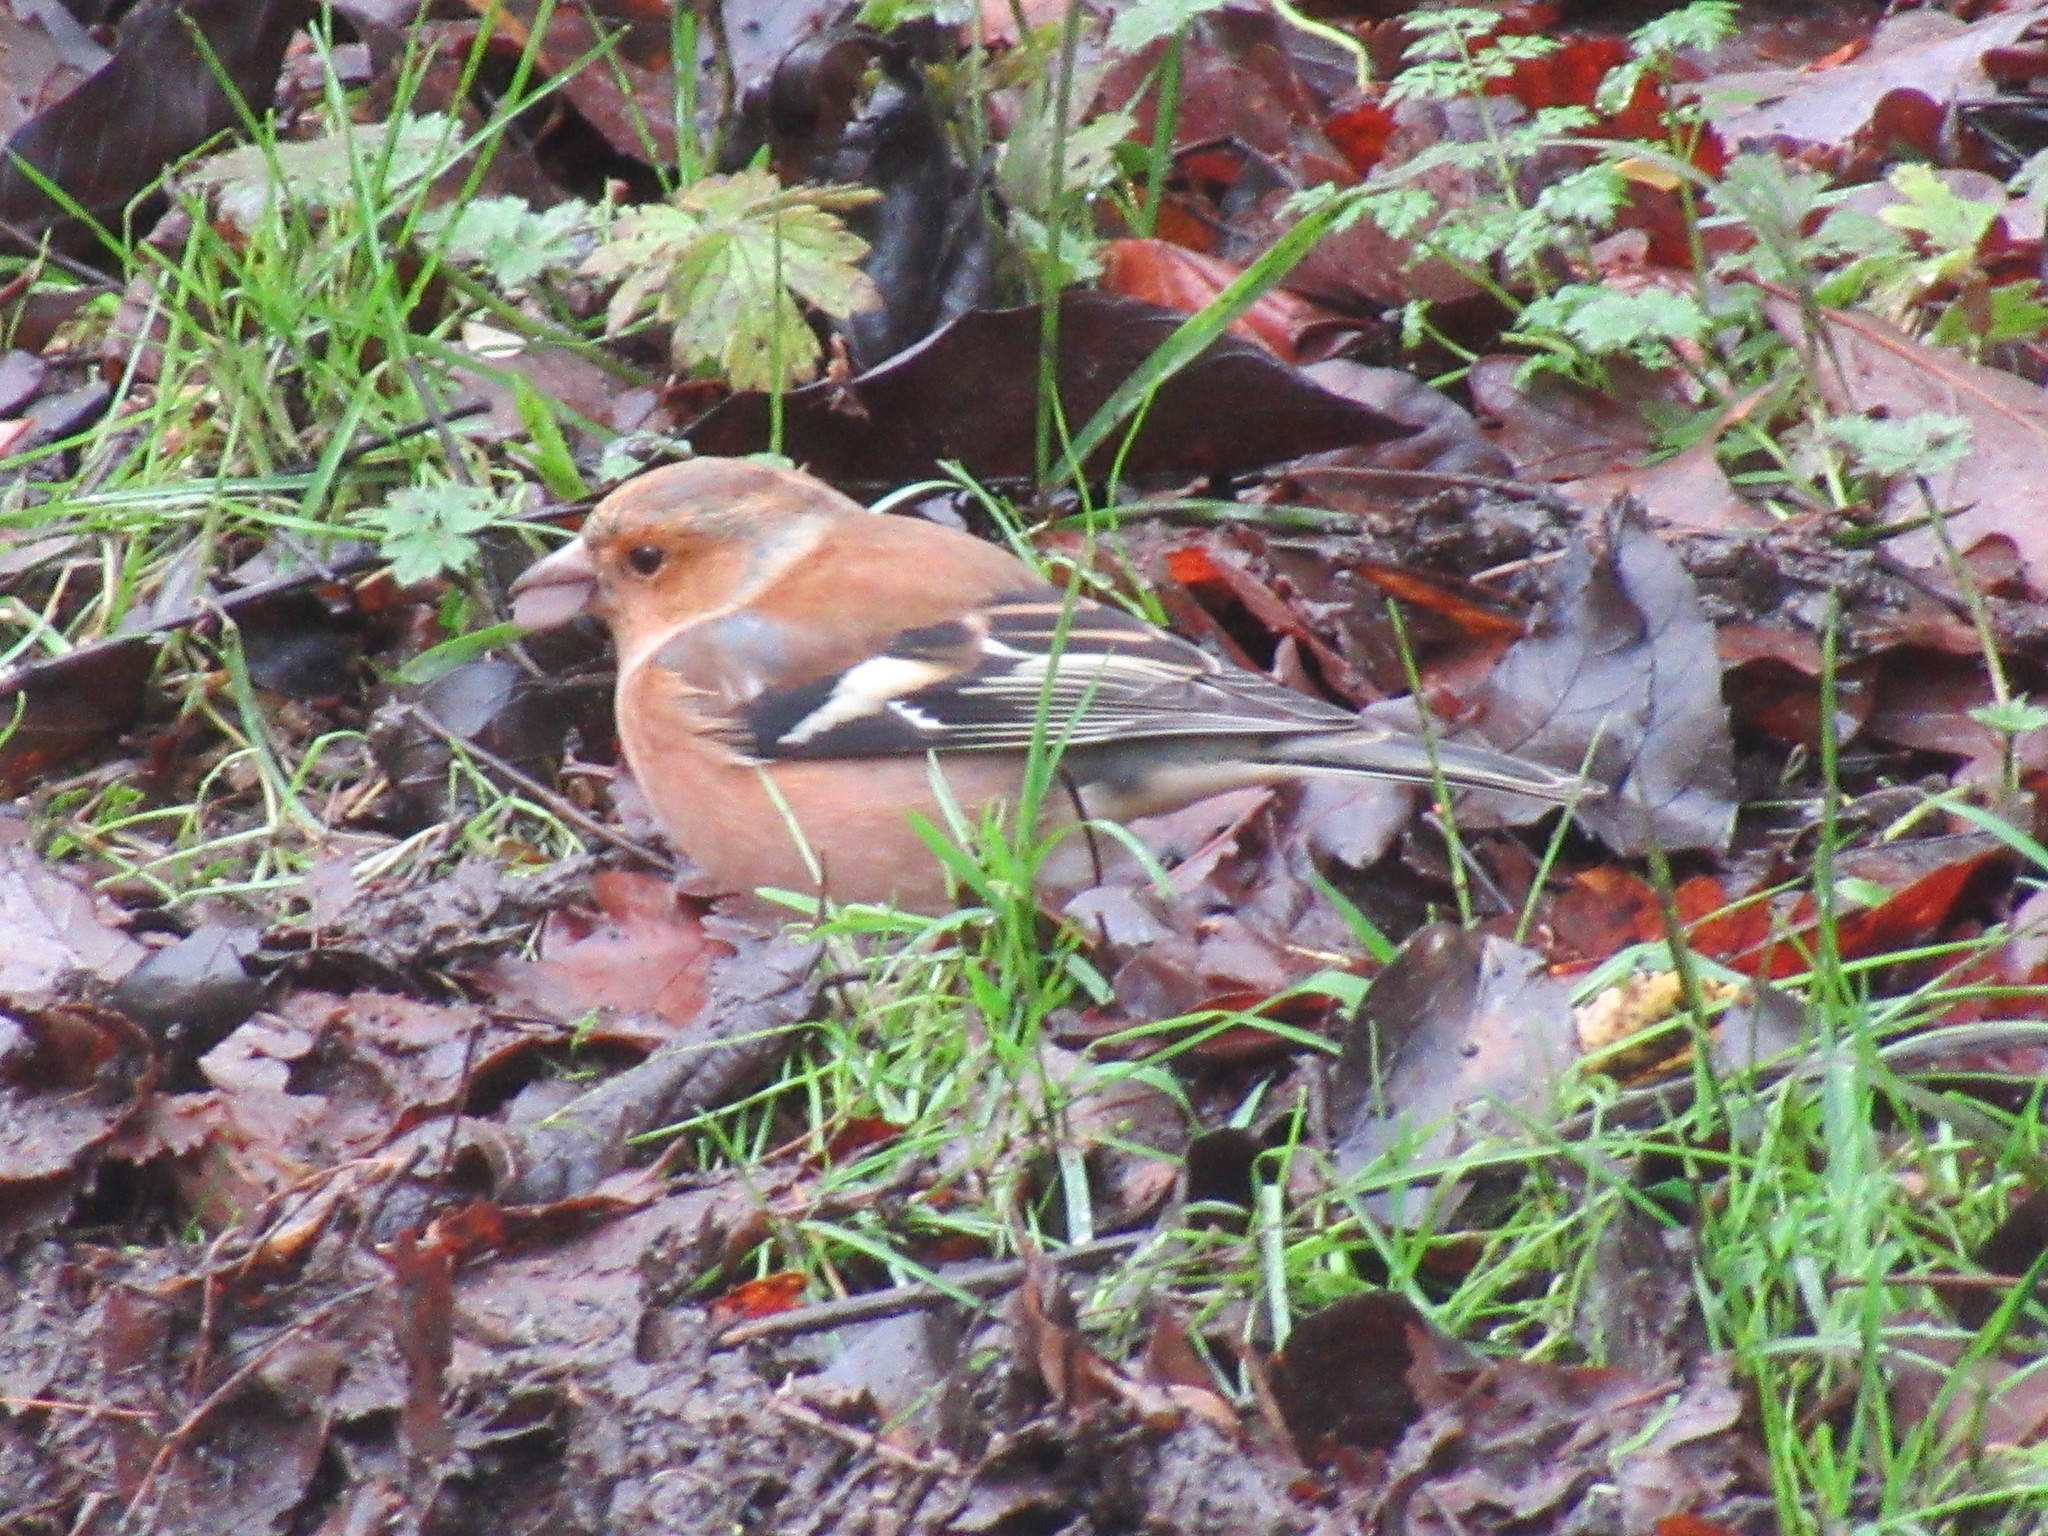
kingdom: Animalia
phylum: Chordata
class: Aves
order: Passeriformes
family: Fringillidae
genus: Fringilla
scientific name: Fringilla coelebs
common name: Common chaffinch
